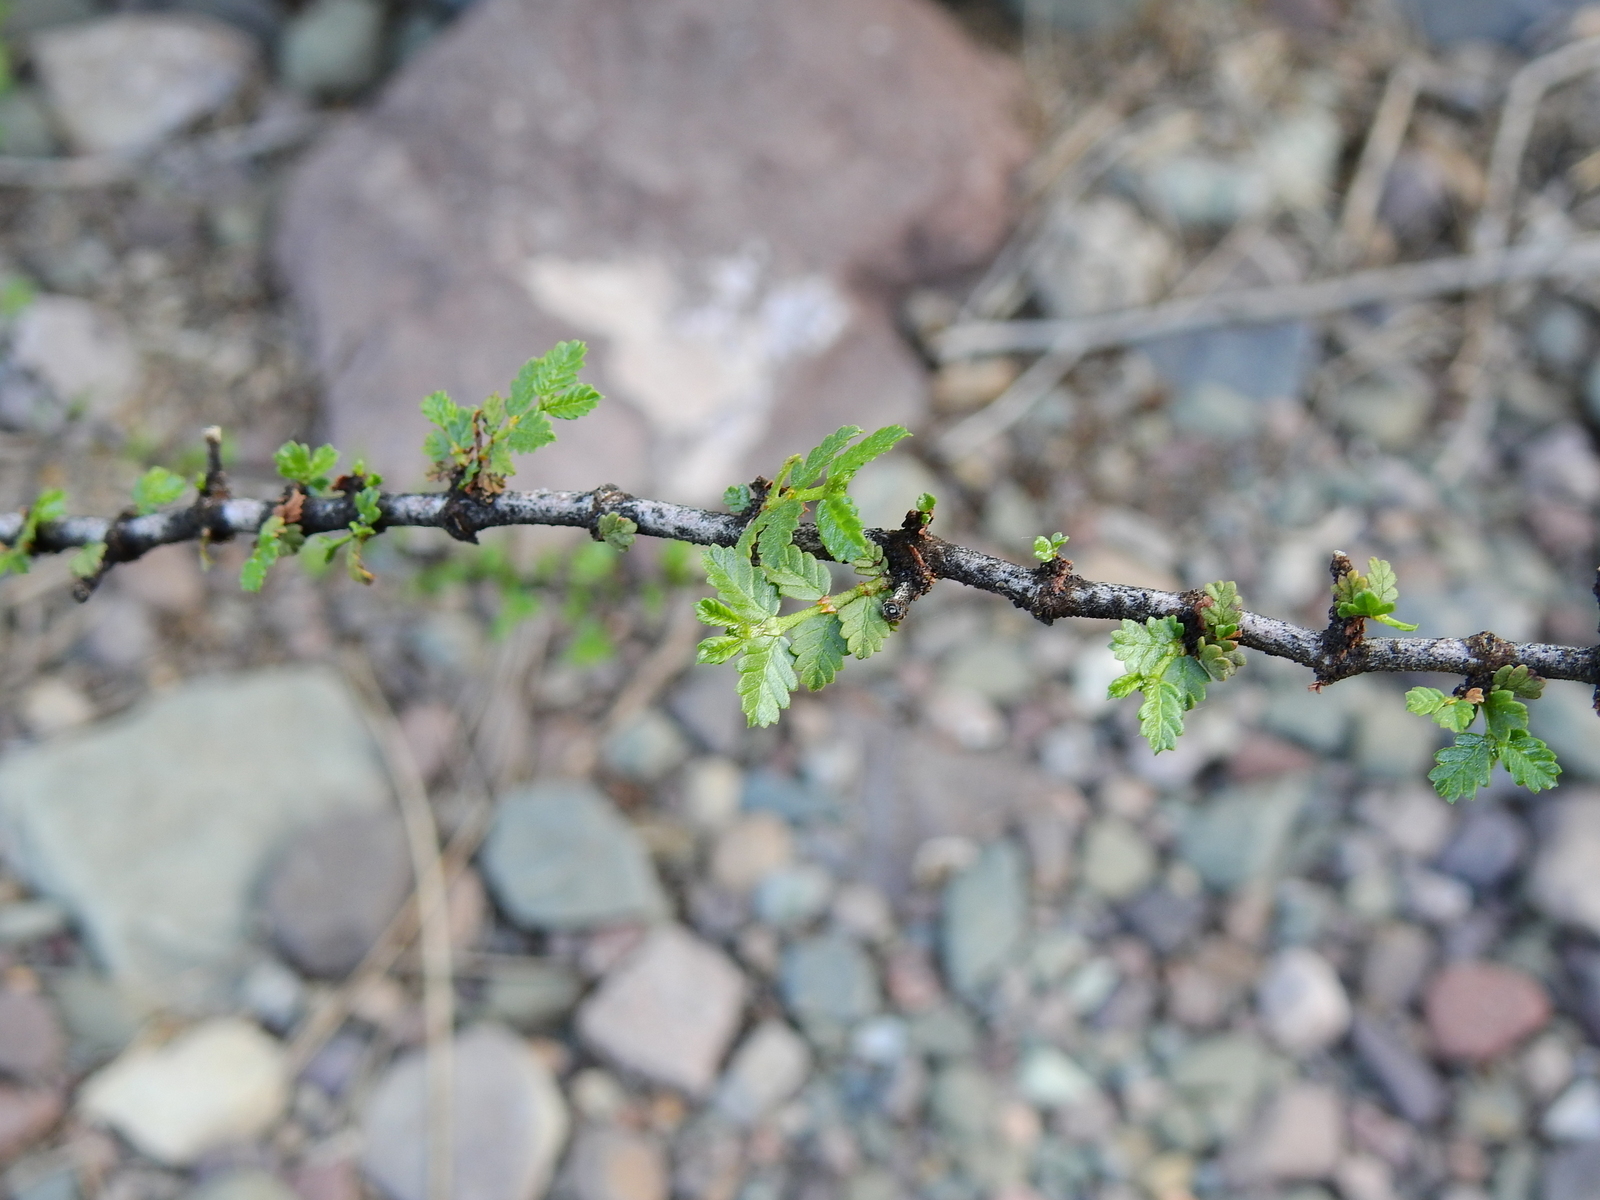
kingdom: Plantae
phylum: Tracheophyta
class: Magnoliopsida
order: Zygophyllales
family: Zygophyllaceae
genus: Larrea
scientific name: Larrea nitida
